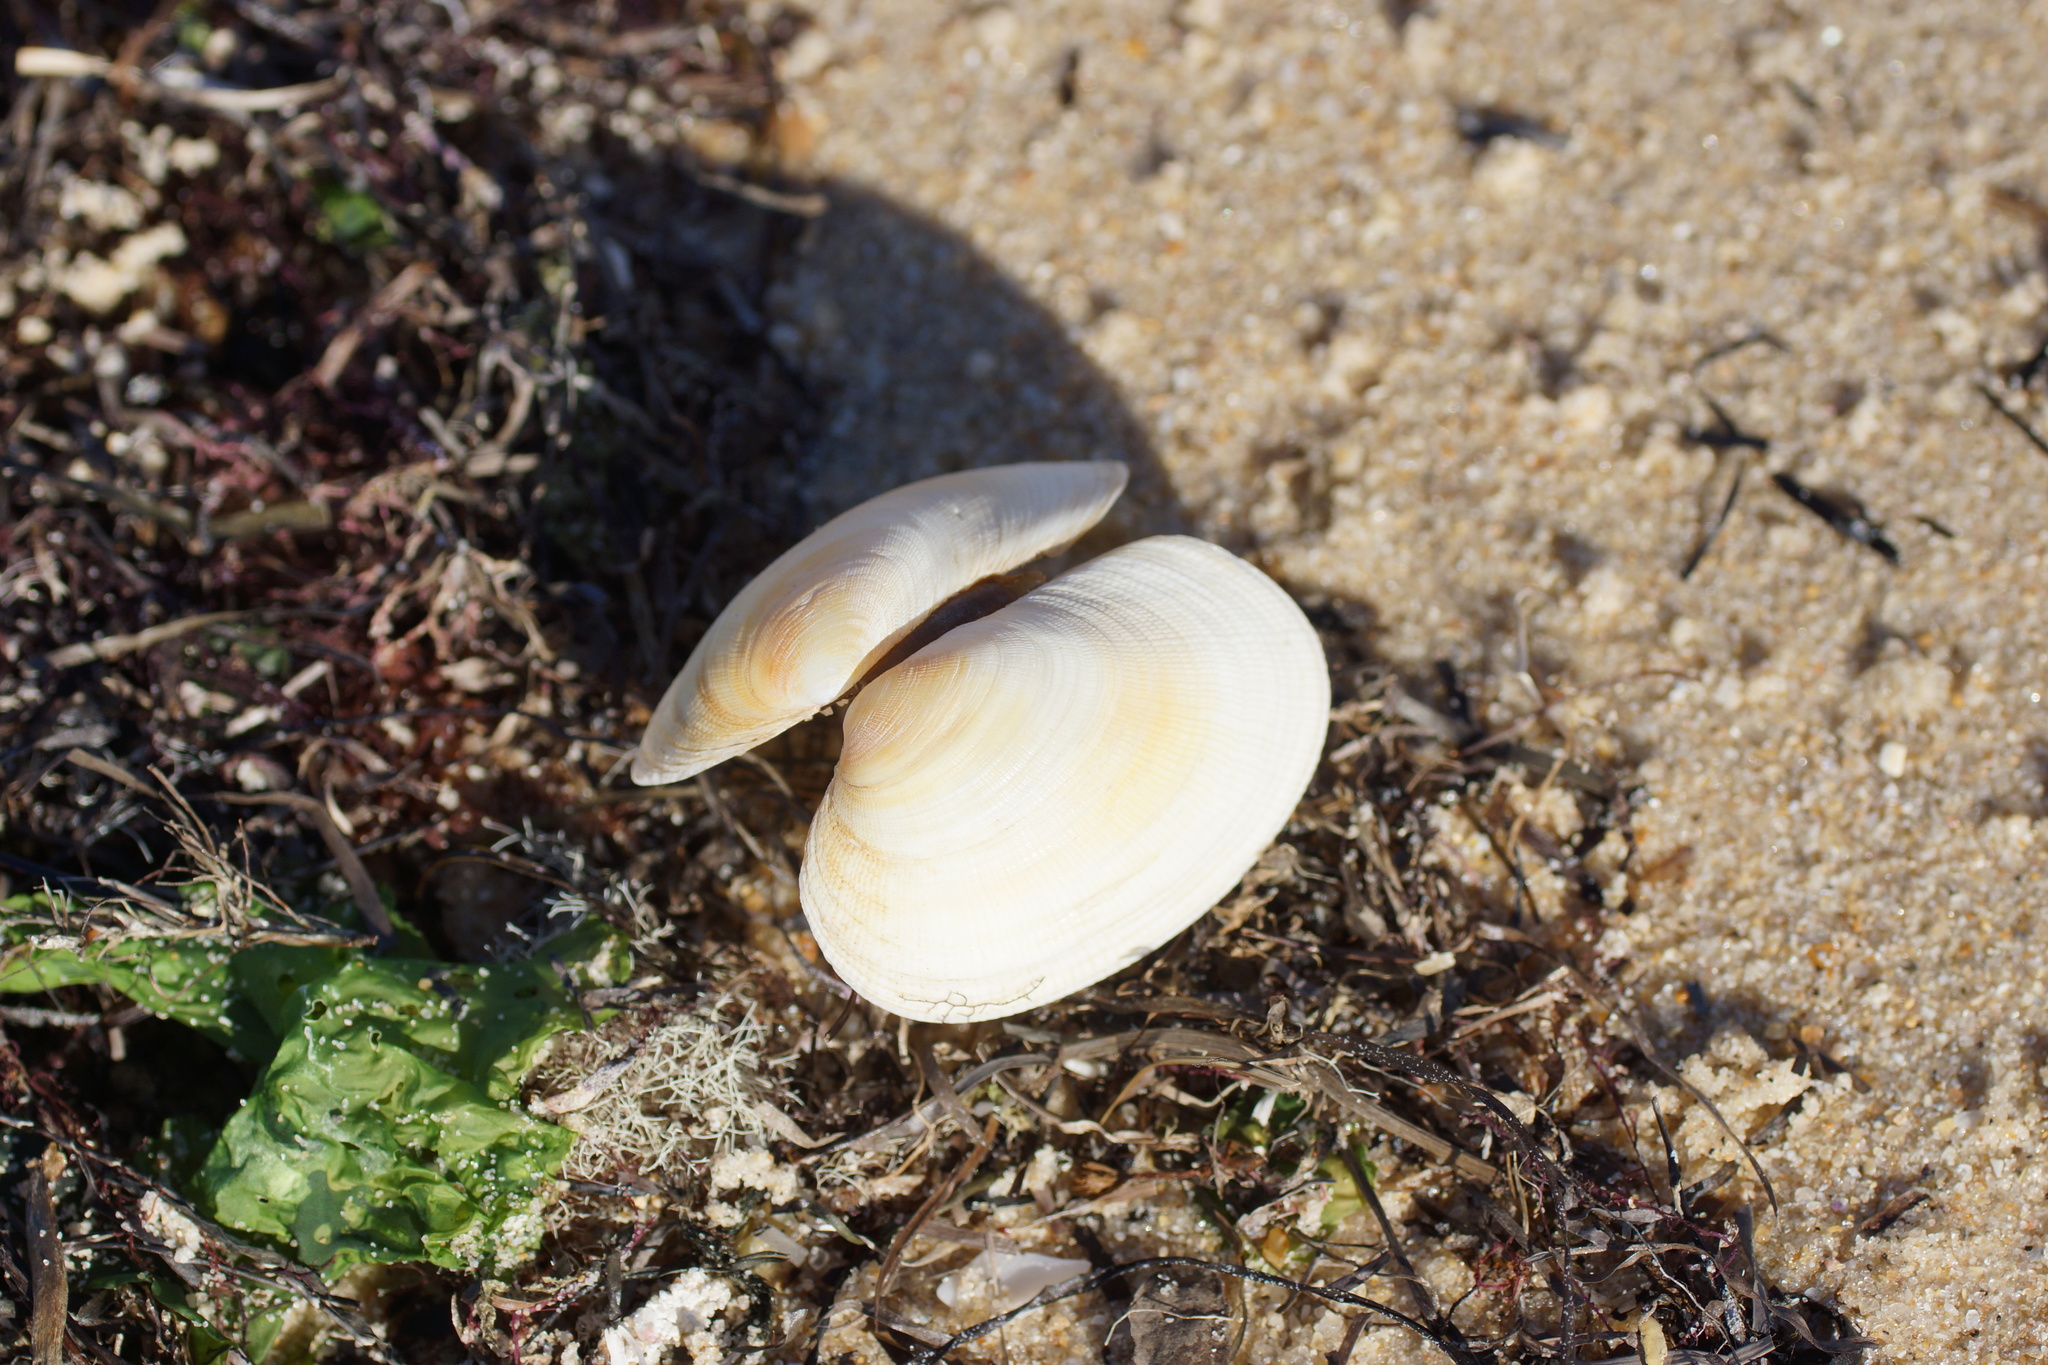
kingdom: Animalia
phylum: Mollusca
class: Bivalvia
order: Venerida
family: Veneridae
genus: Venerupis
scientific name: Venerupis galactites
